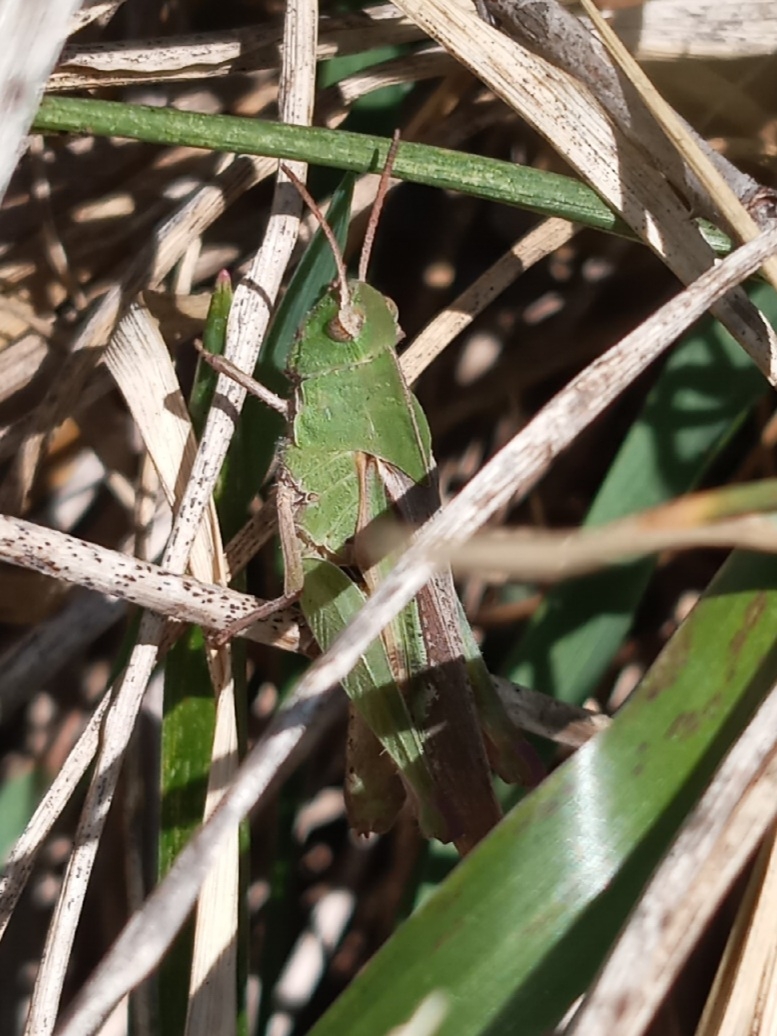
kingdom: Animalia
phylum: Arthropoda
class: Insecta
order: Orthoptera
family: Acrididae
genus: Chortophaga
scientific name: Chortophaga viridifasciata
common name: Green-striped grasshopper
